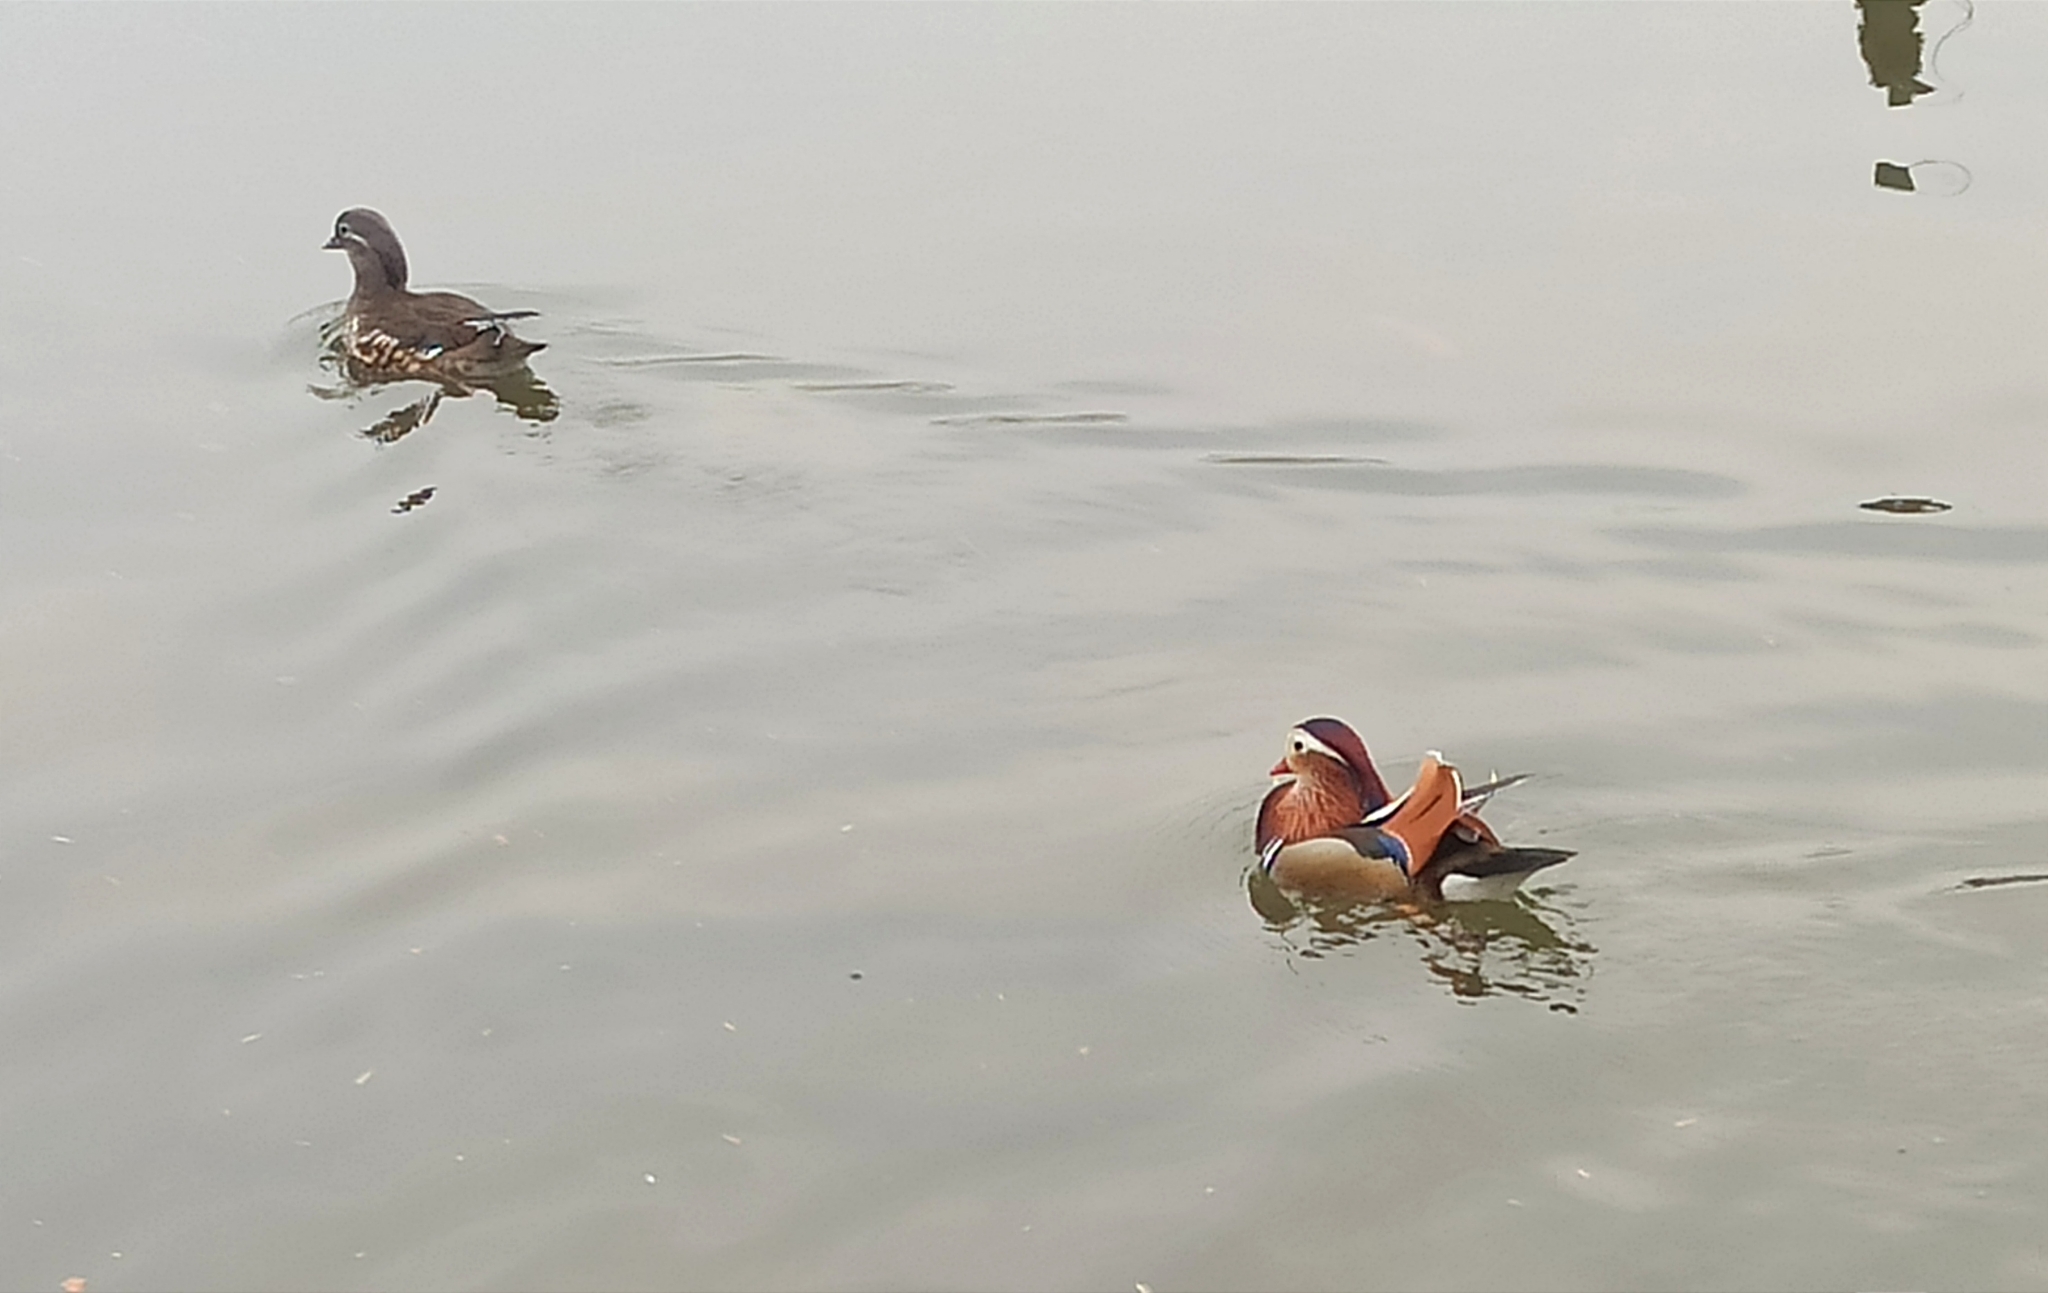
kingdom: Animalia
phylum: Chordata
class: Aves
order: Anseriformes
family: Anatidae
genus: Aix
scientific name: Aix galericulata
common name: Mandarin duck
